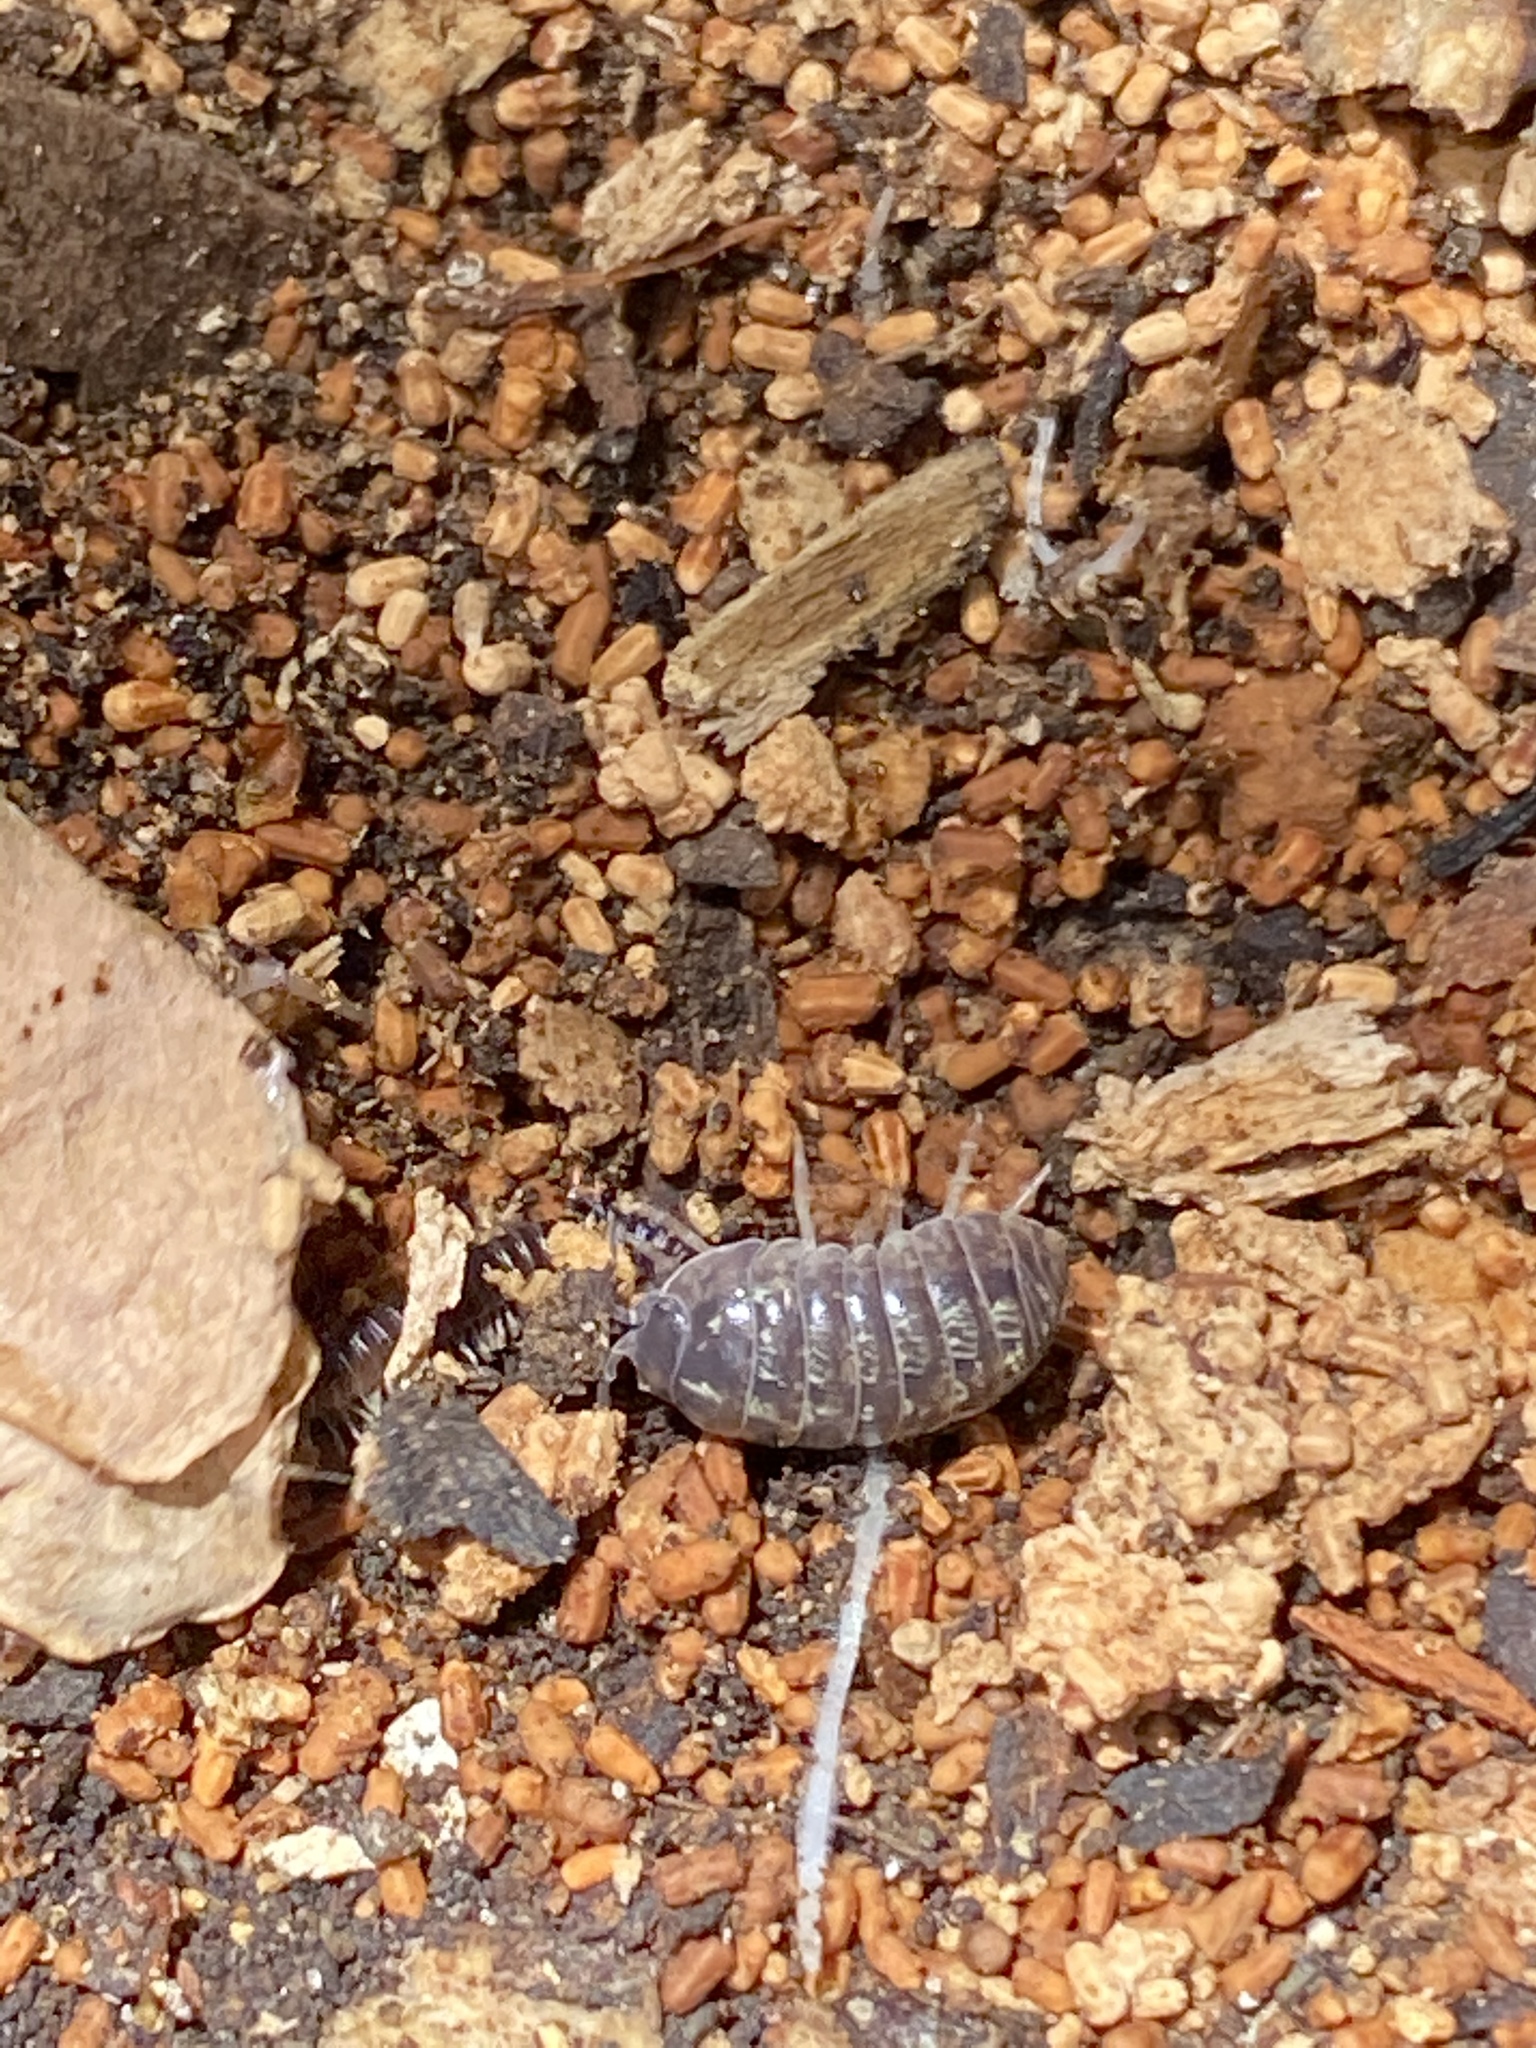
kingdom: Animalia
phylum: Arthropoda
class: Malacostraca
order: Isopoda
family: Armadillidiidae
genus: Armadillidium
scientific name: Armadillidium vulgare
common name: Common pill woodlouse
